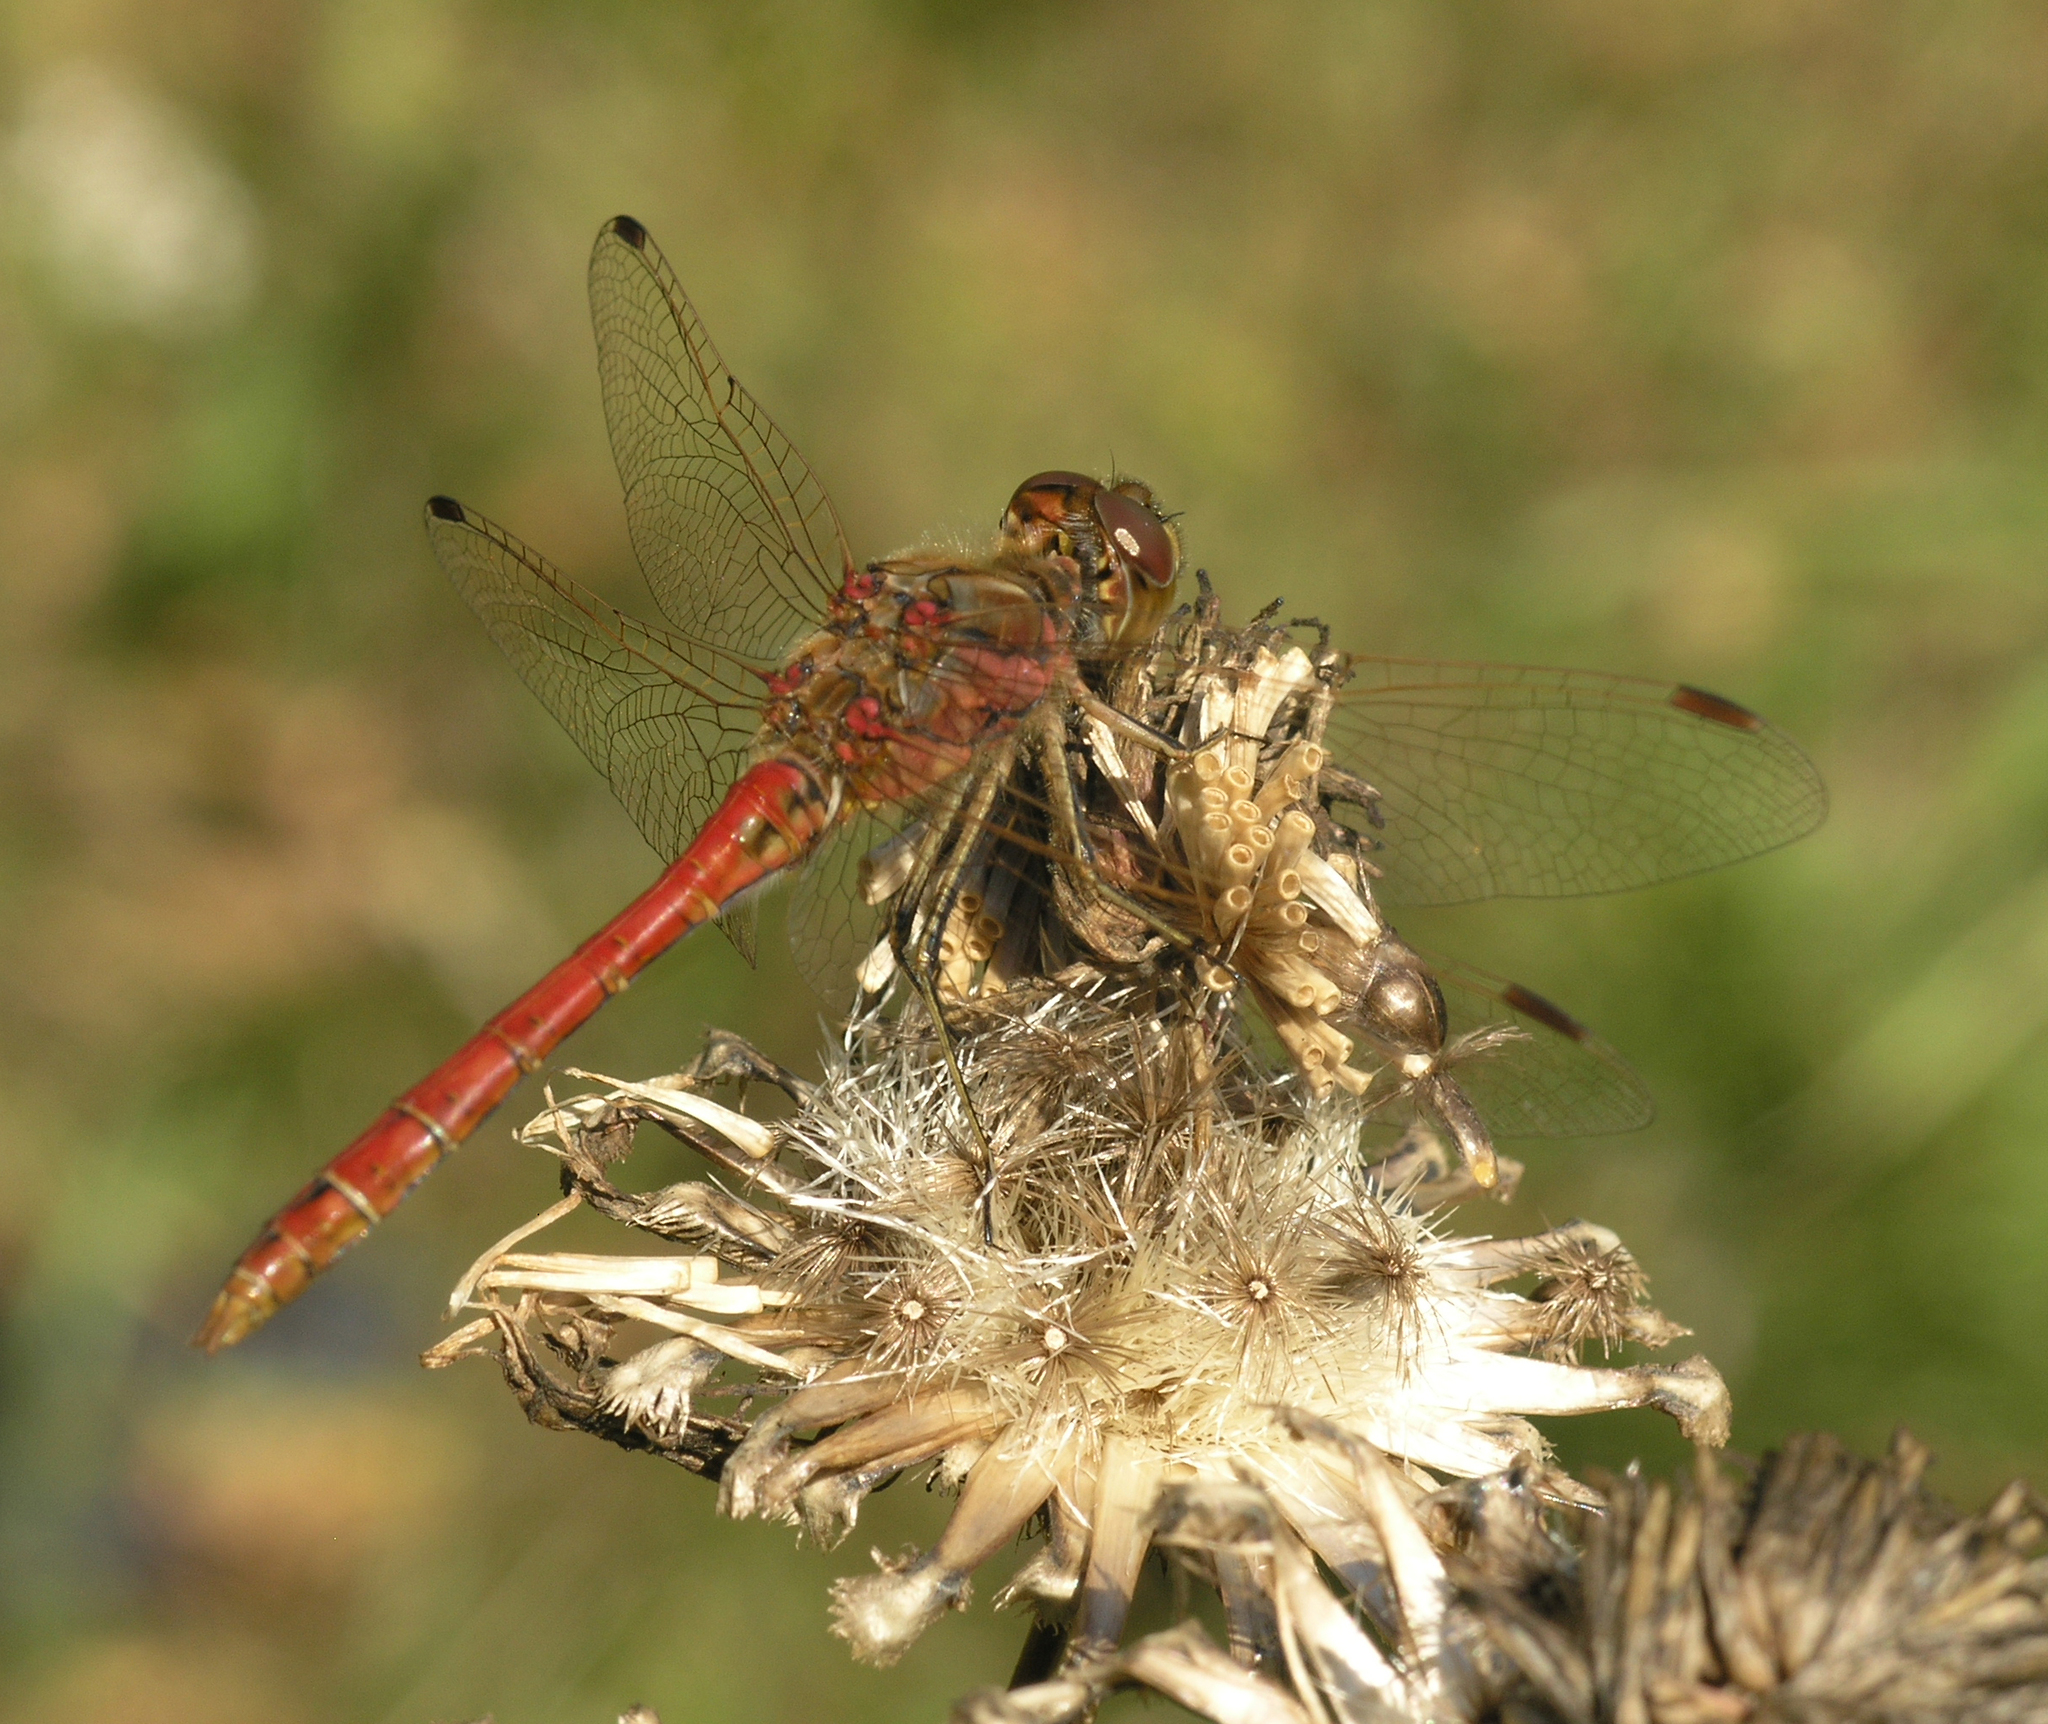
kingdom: Animalia
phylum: Arthropoda
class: Insecta
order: Odonata
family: Libellulidae
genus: Sympetrum
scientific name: Sympetrum vulgatum
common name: Vagrant darter
